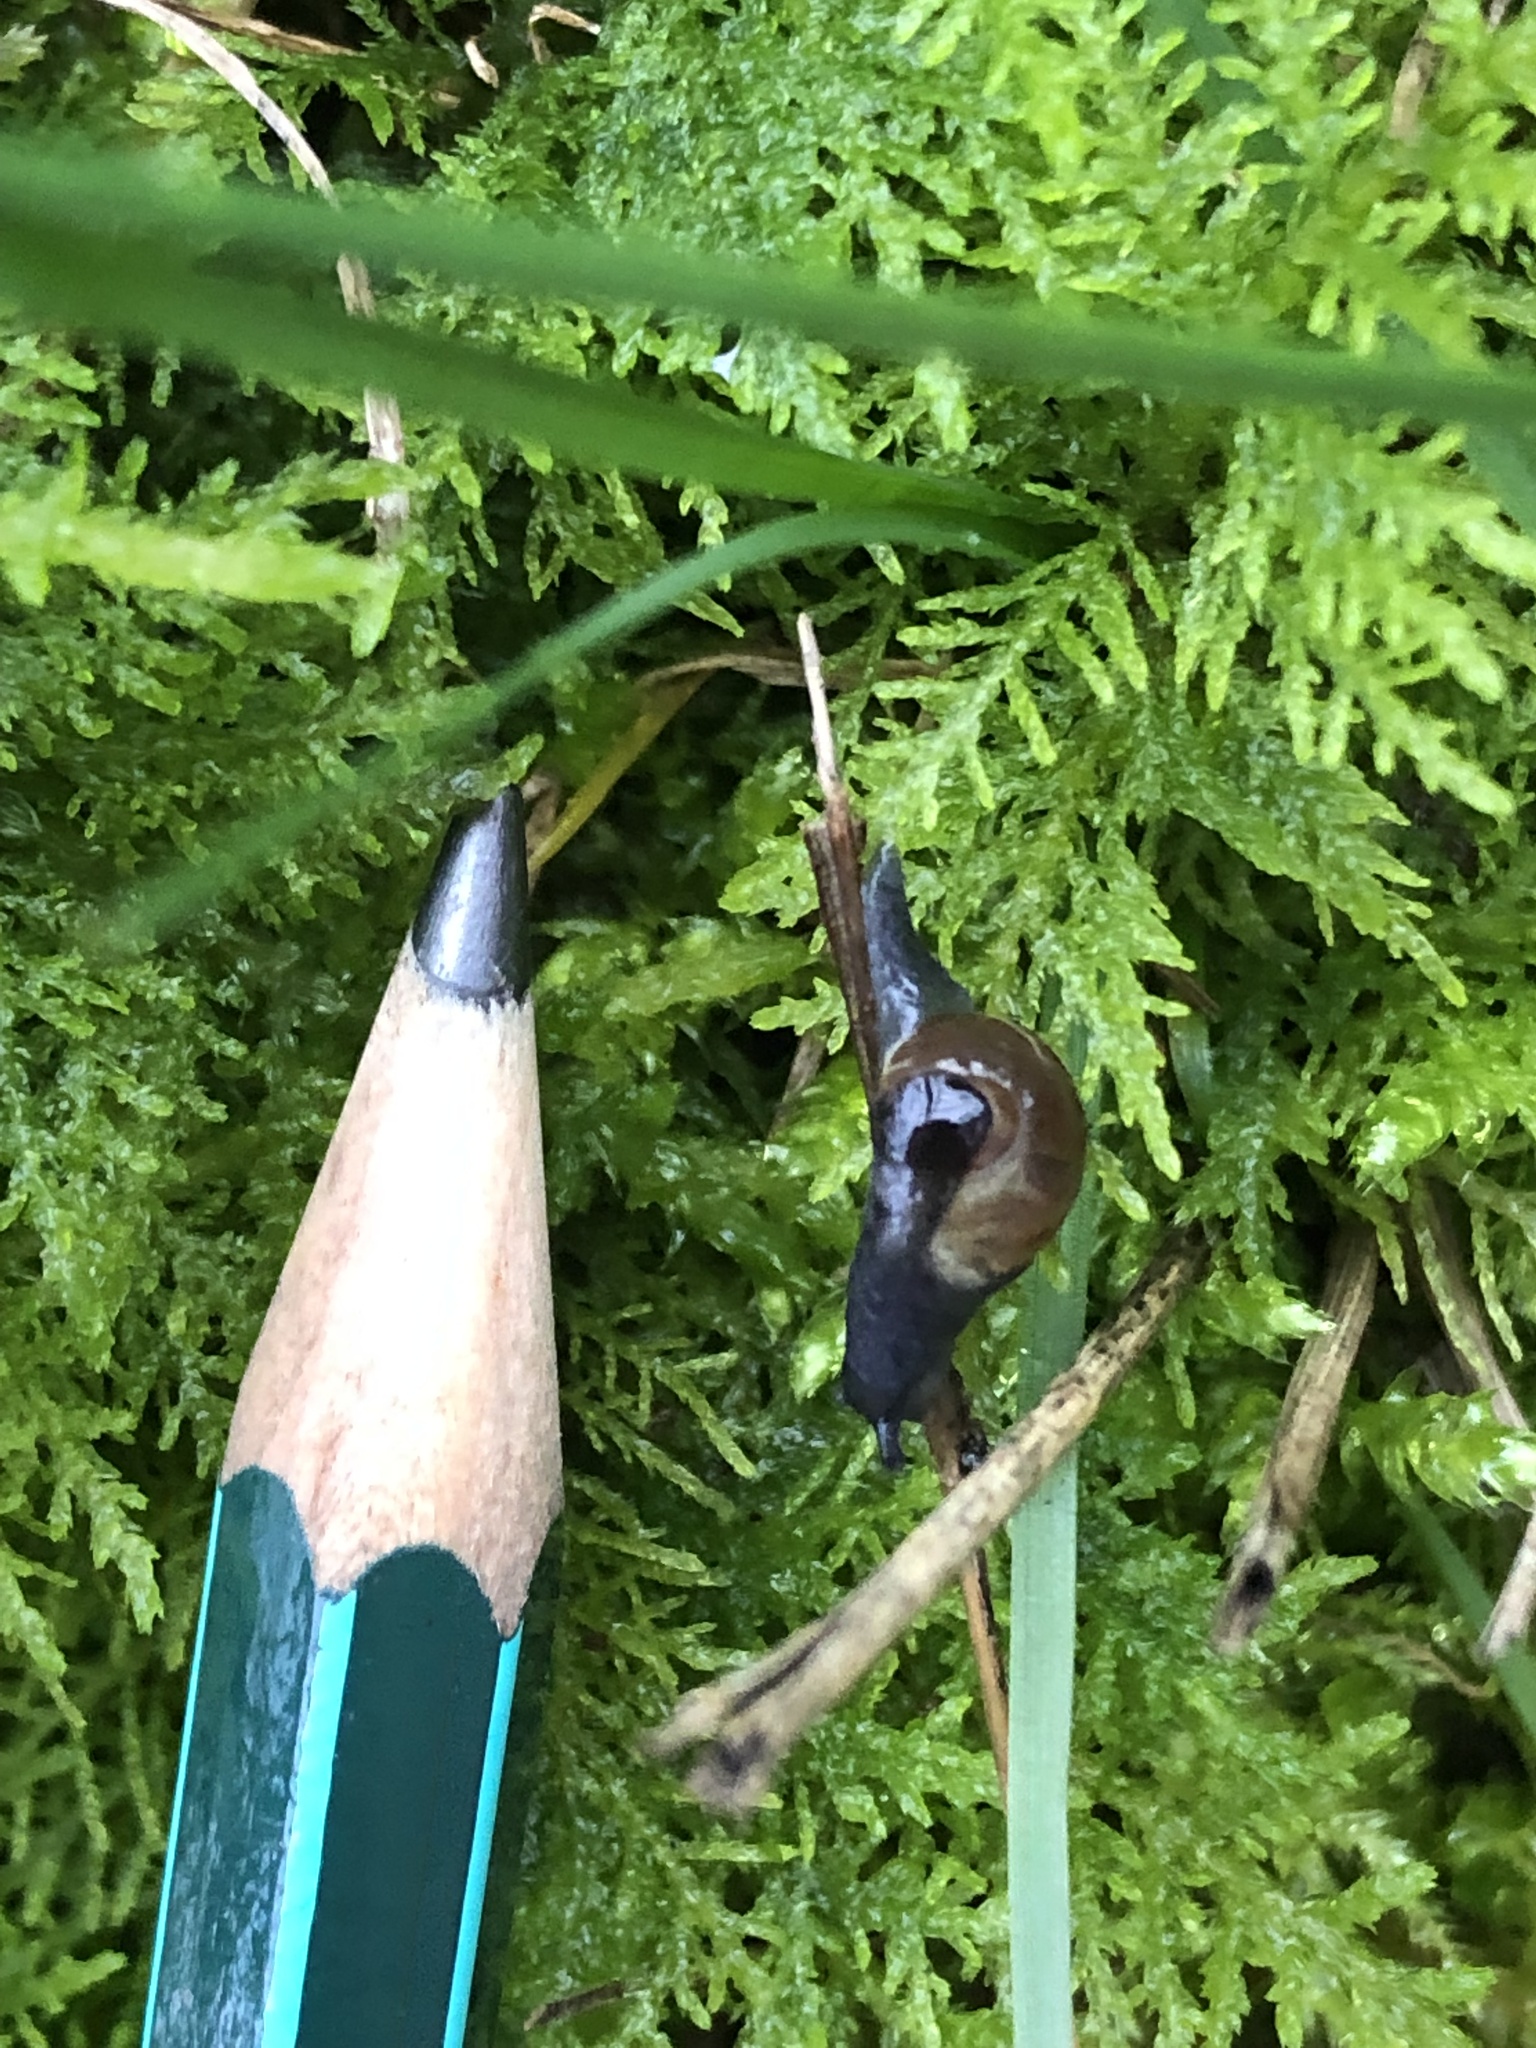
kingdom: Animalia
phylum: Mollusca
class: Gastropoda
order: Stylommatophora
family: Vitrinidae
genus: Phenacolimax
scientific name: Phenacolimax major
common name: Greater pellucid glass snail
